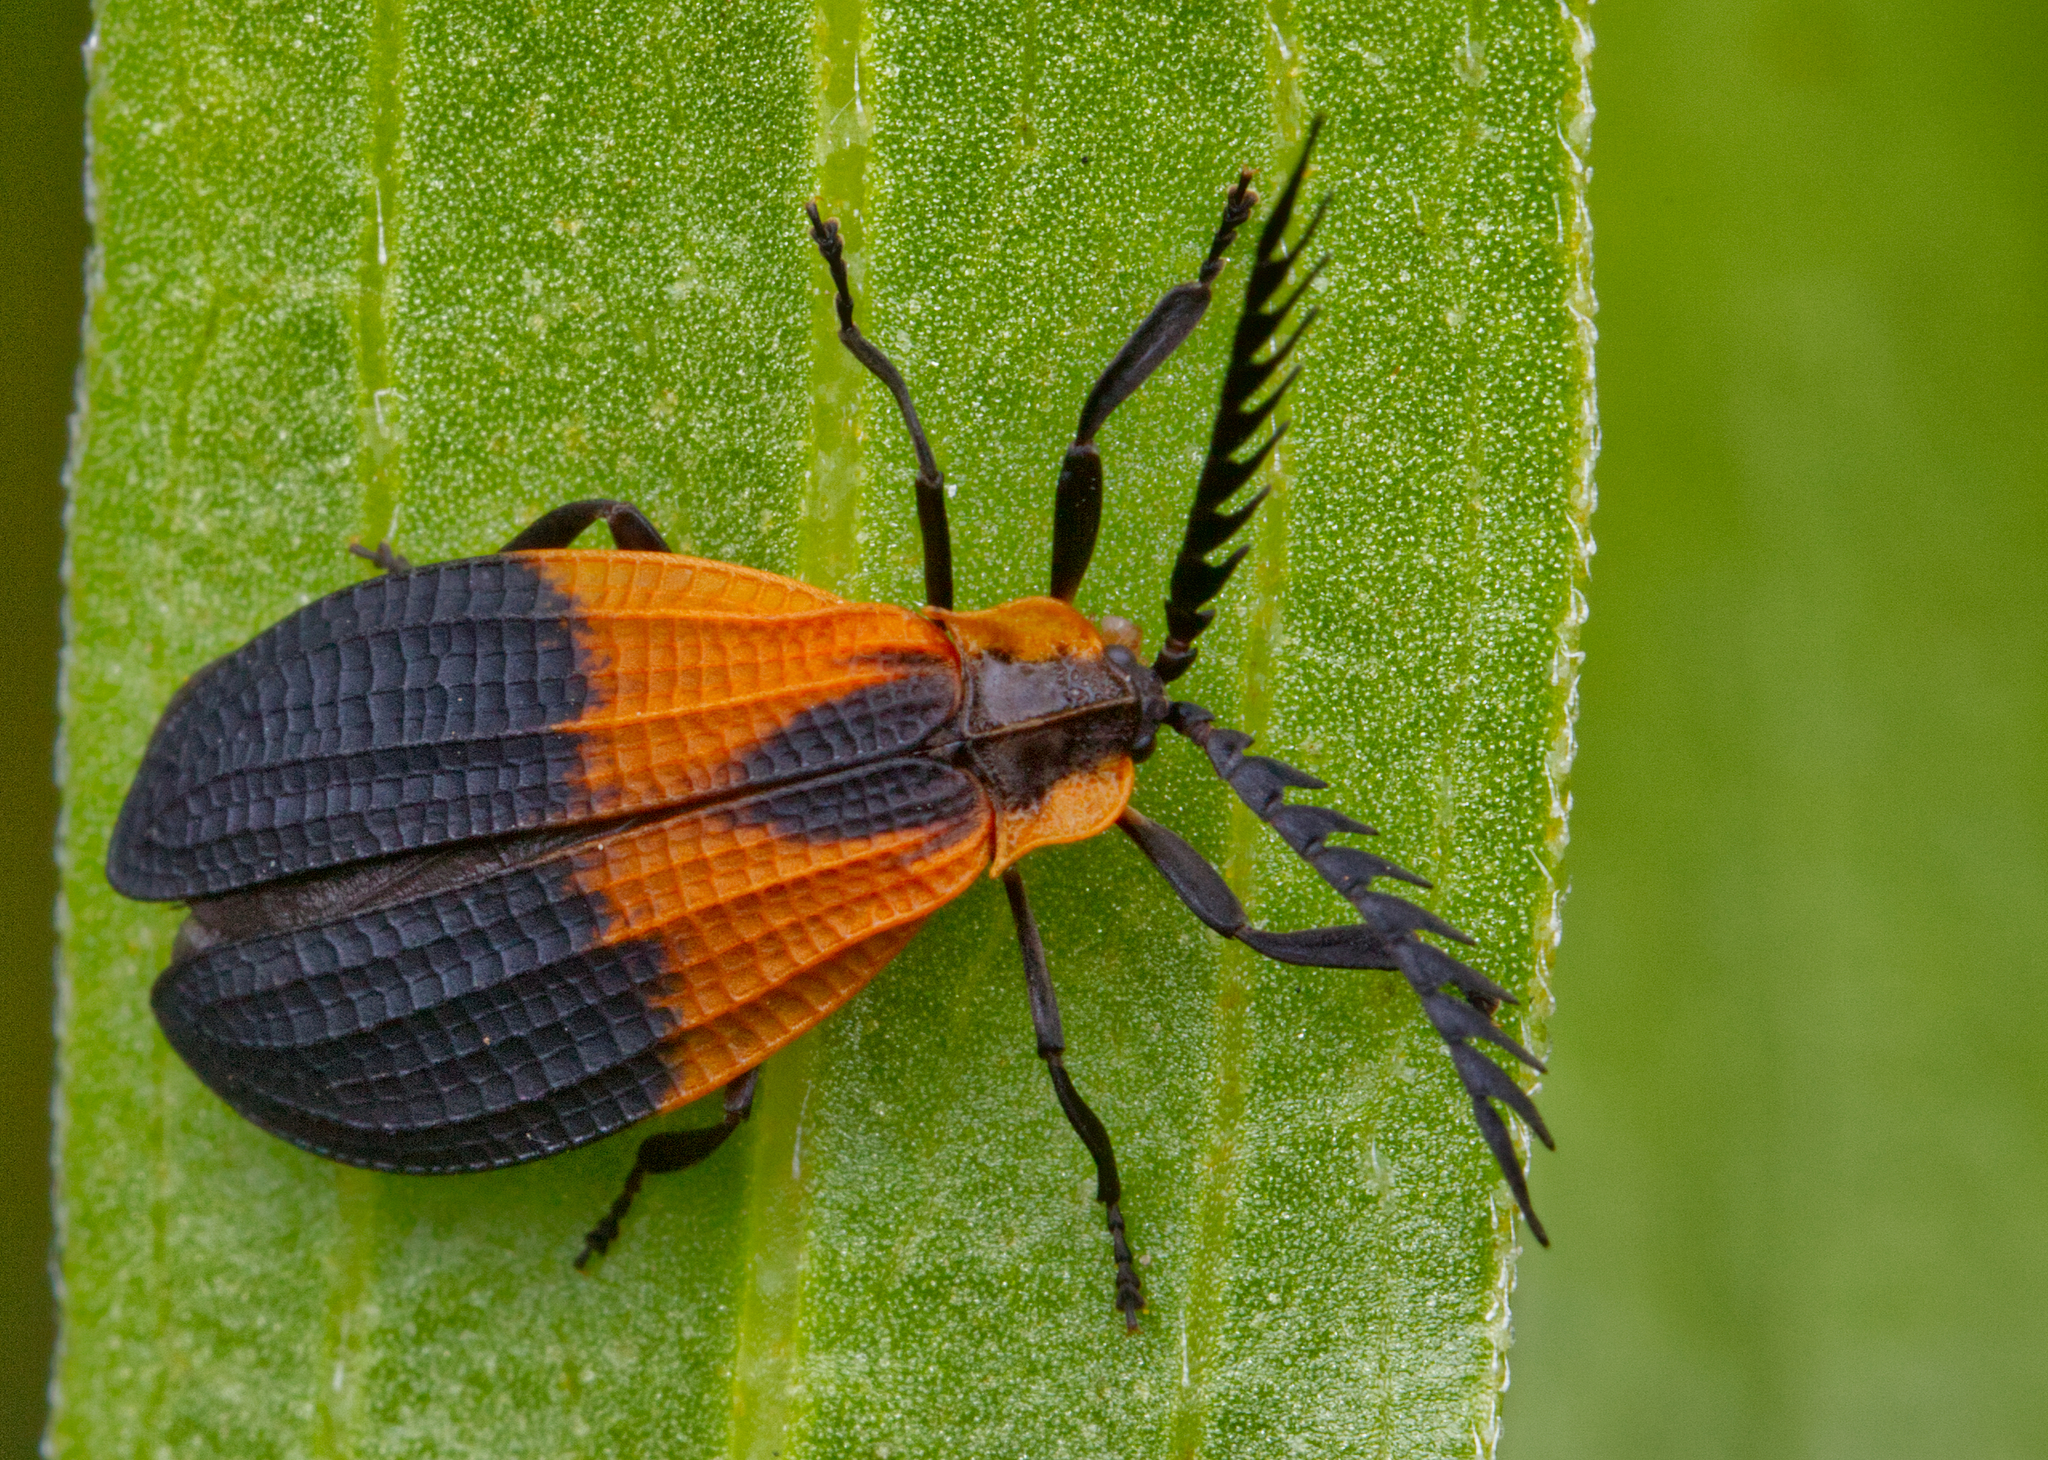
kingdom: Animalia
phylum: Arthropoda
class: Insecta
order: Coleoptera
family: Lycidae
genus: Caenia
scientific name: Caenia dimidiata
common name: Terminal net-winged beetle
